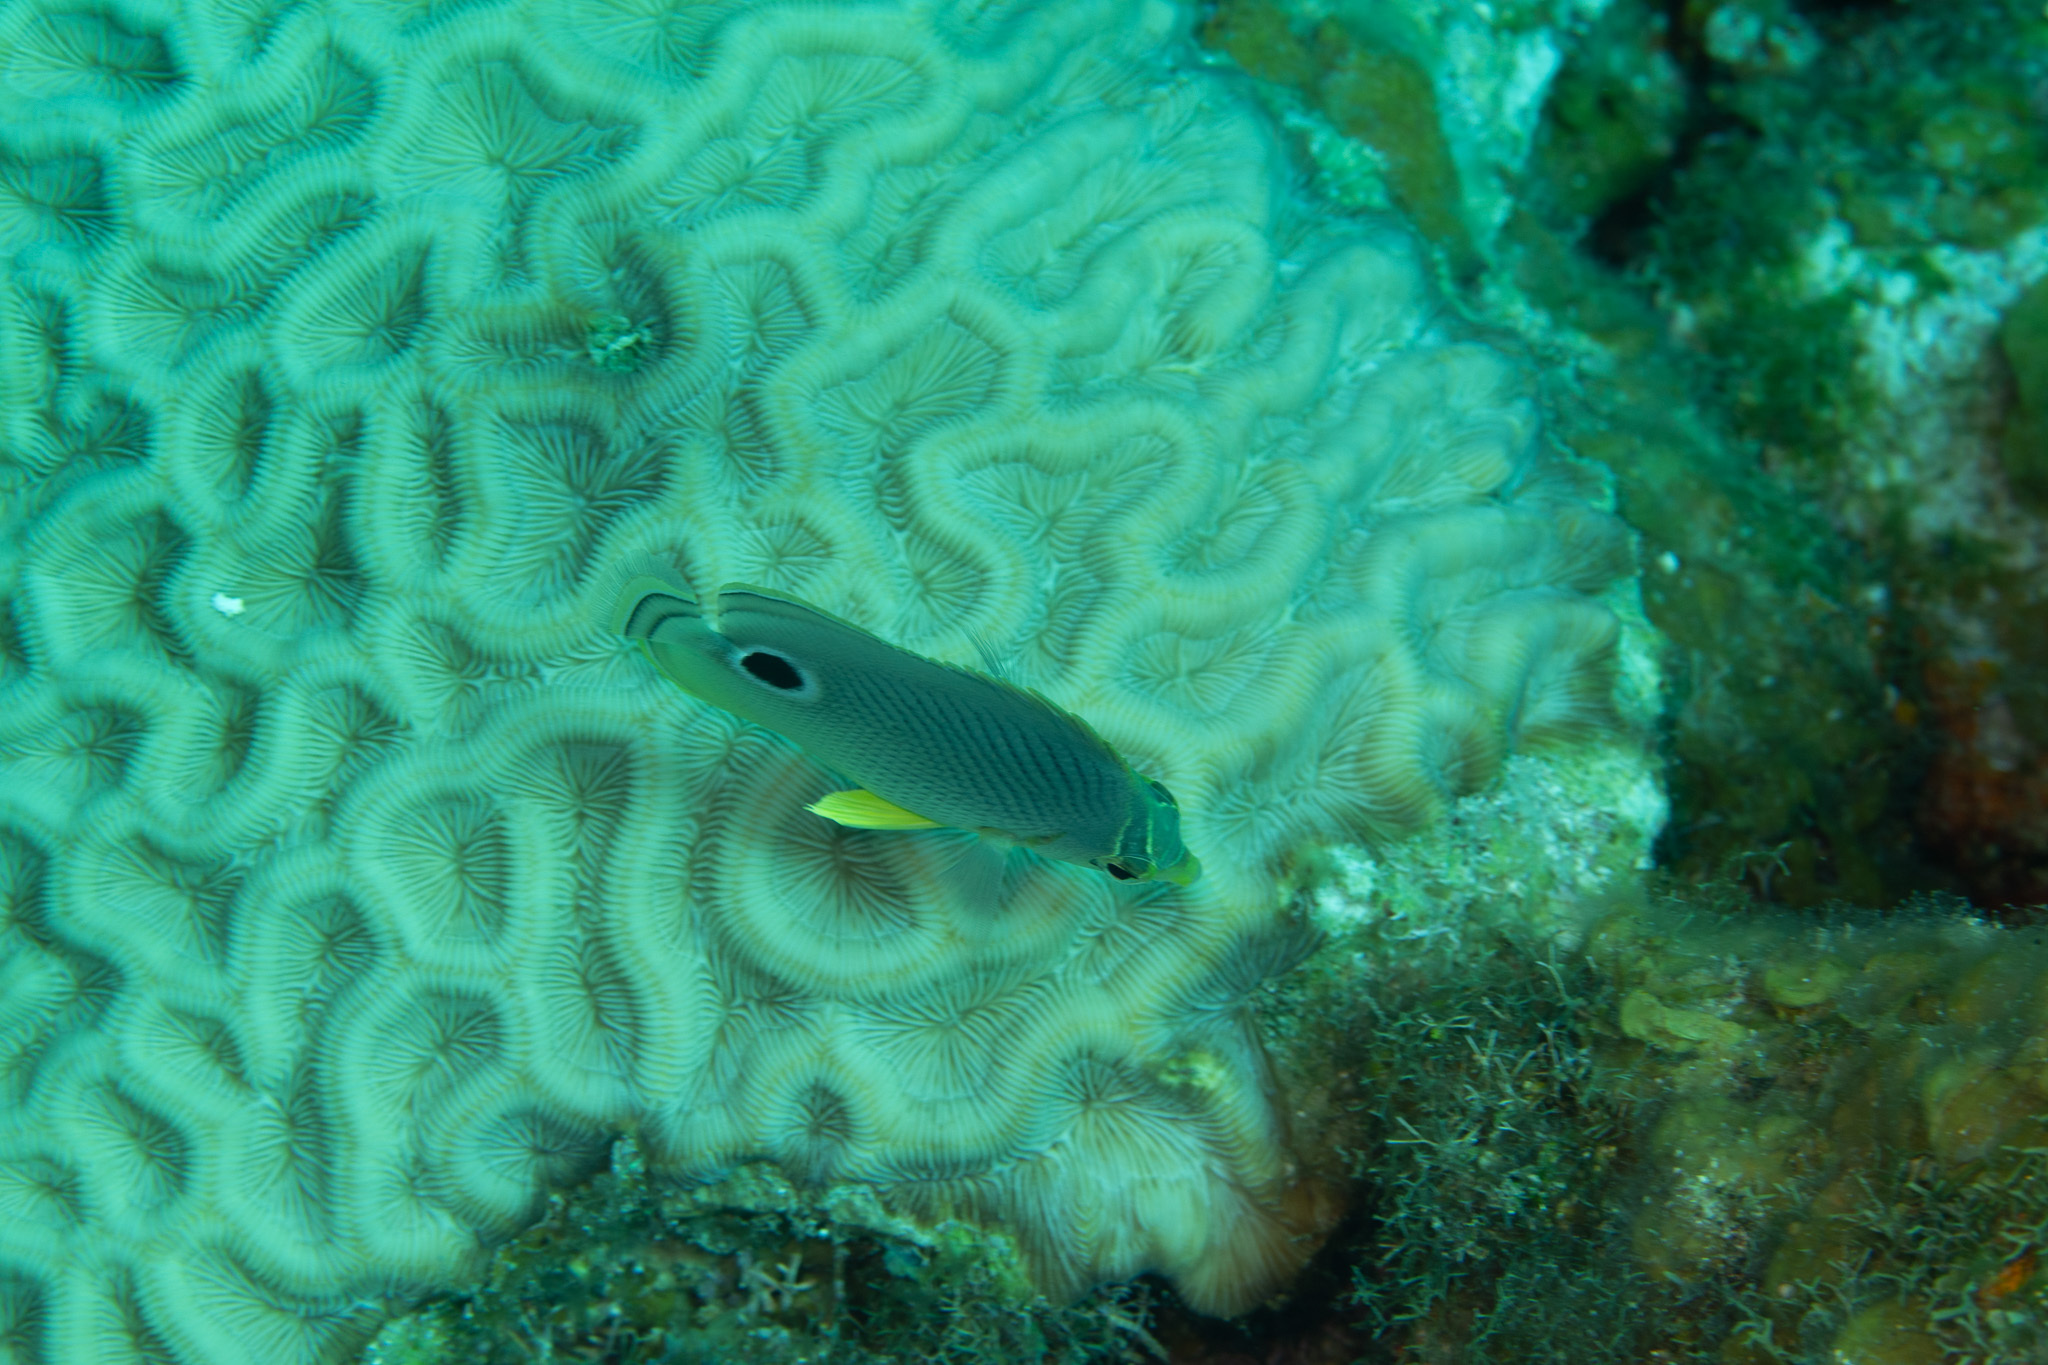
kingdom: Animalia
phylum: Chordata
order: Perciformes
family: Chaetodontidae
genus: Chaetodon
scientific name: Chaetodon capistratus
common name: Kete
